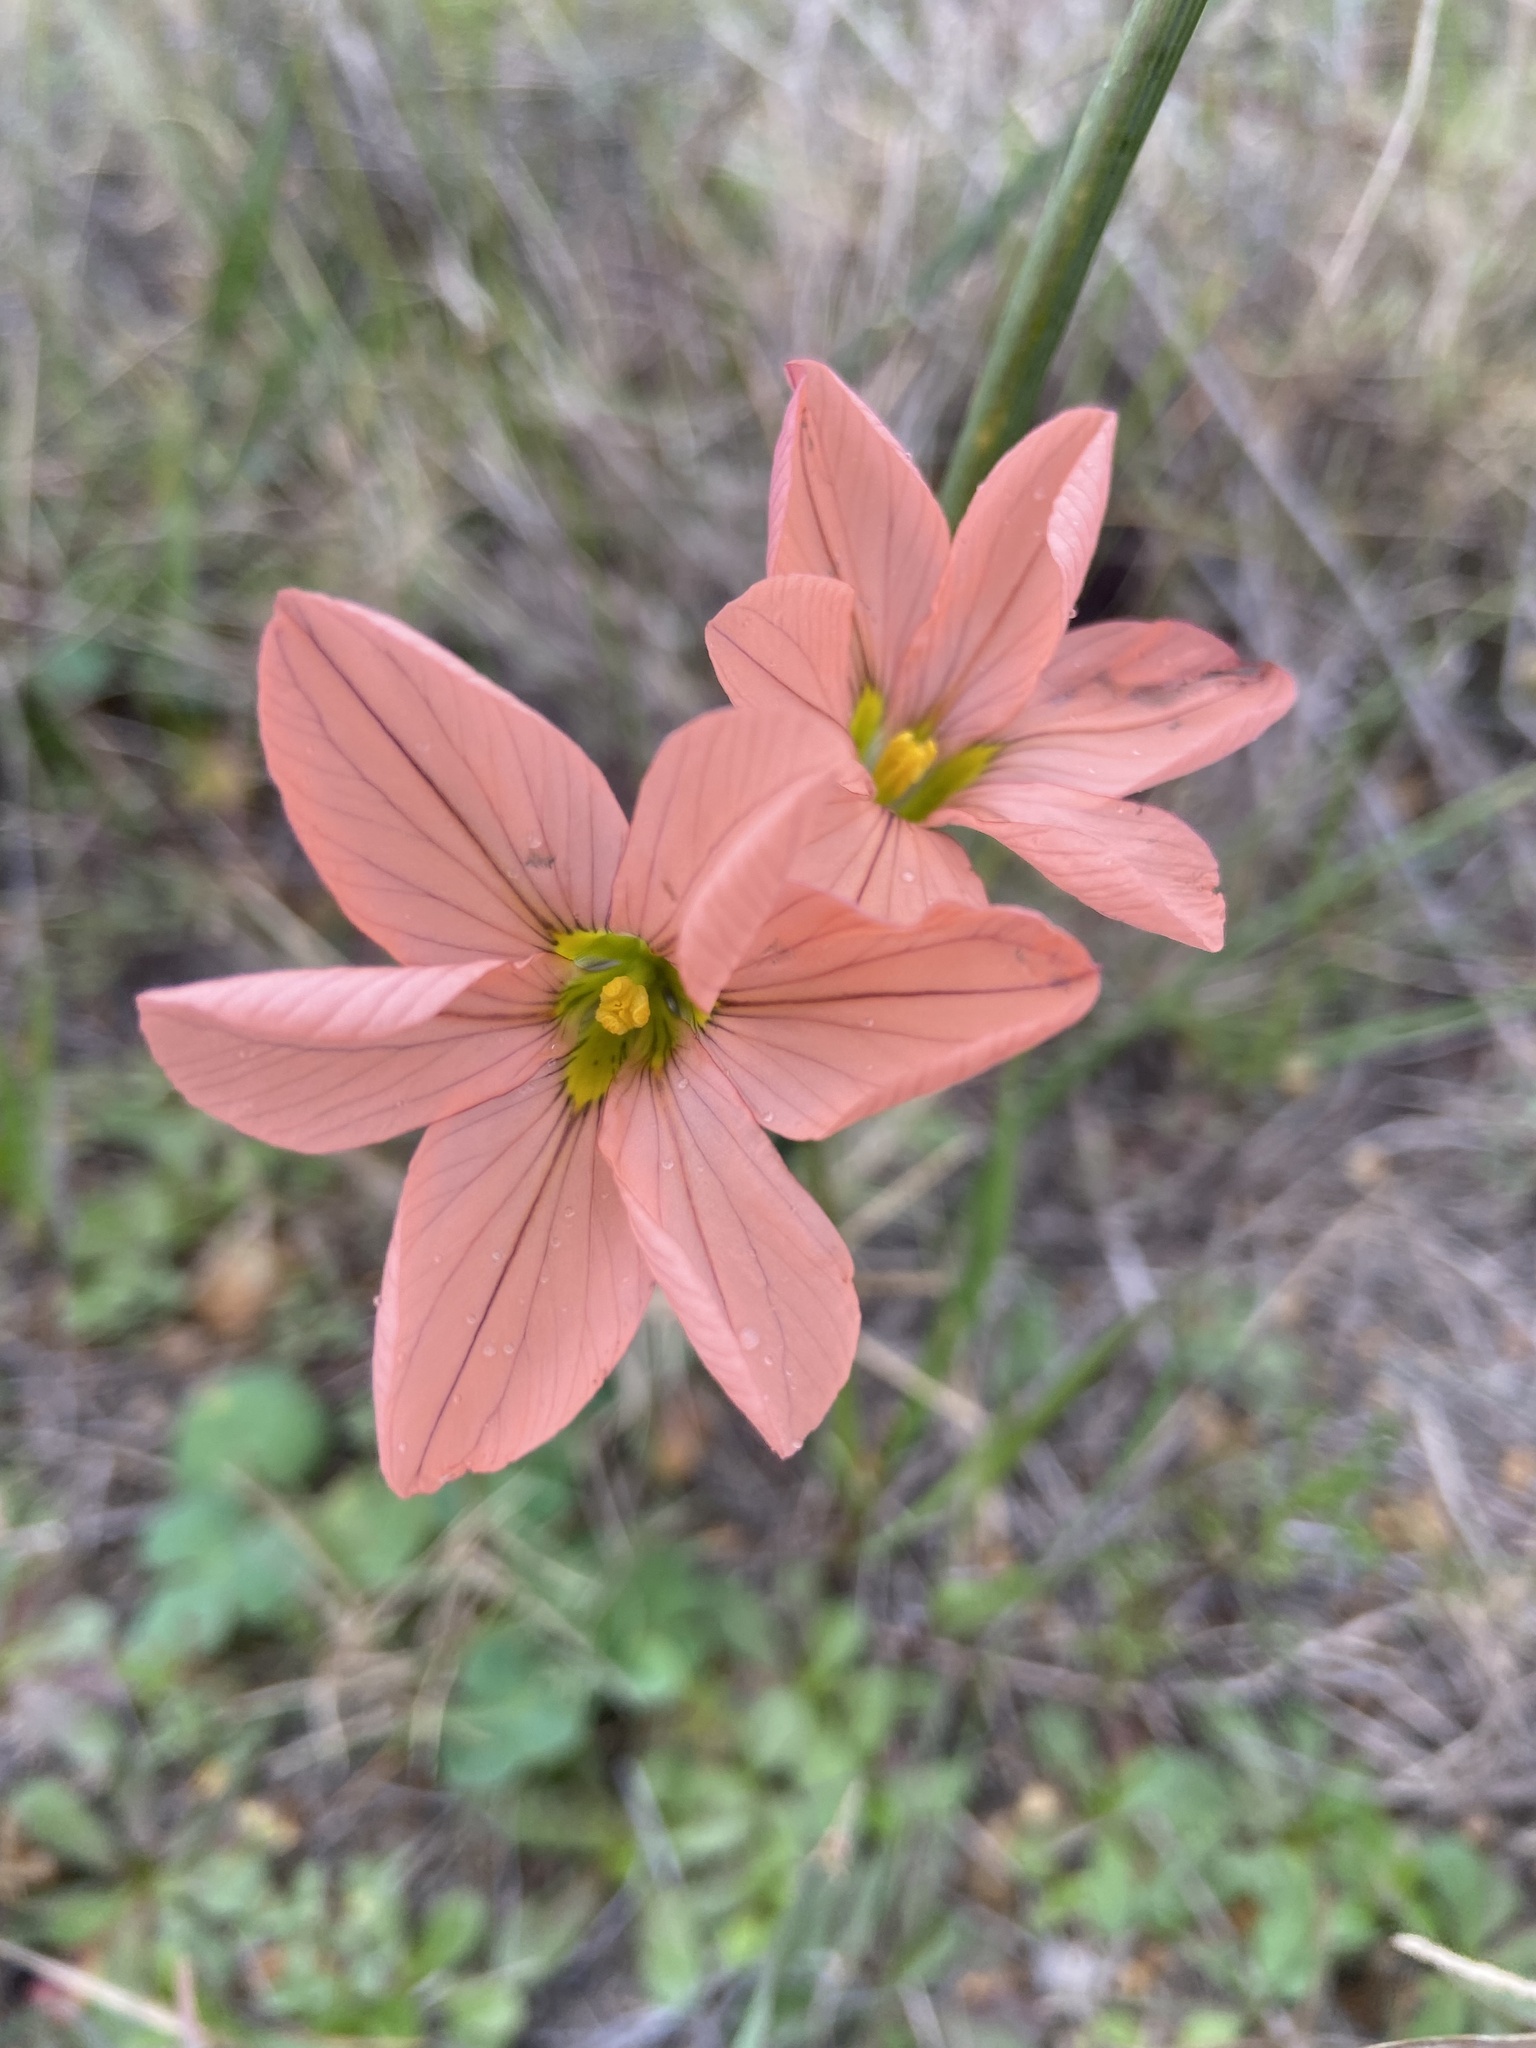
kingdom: Plantae
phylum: Tracheophyta
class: Liliopsida
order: Asparagales
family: Iridaceae
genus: Moraea
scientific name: Moraea flaccida
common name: One-leaf cape-tulip
